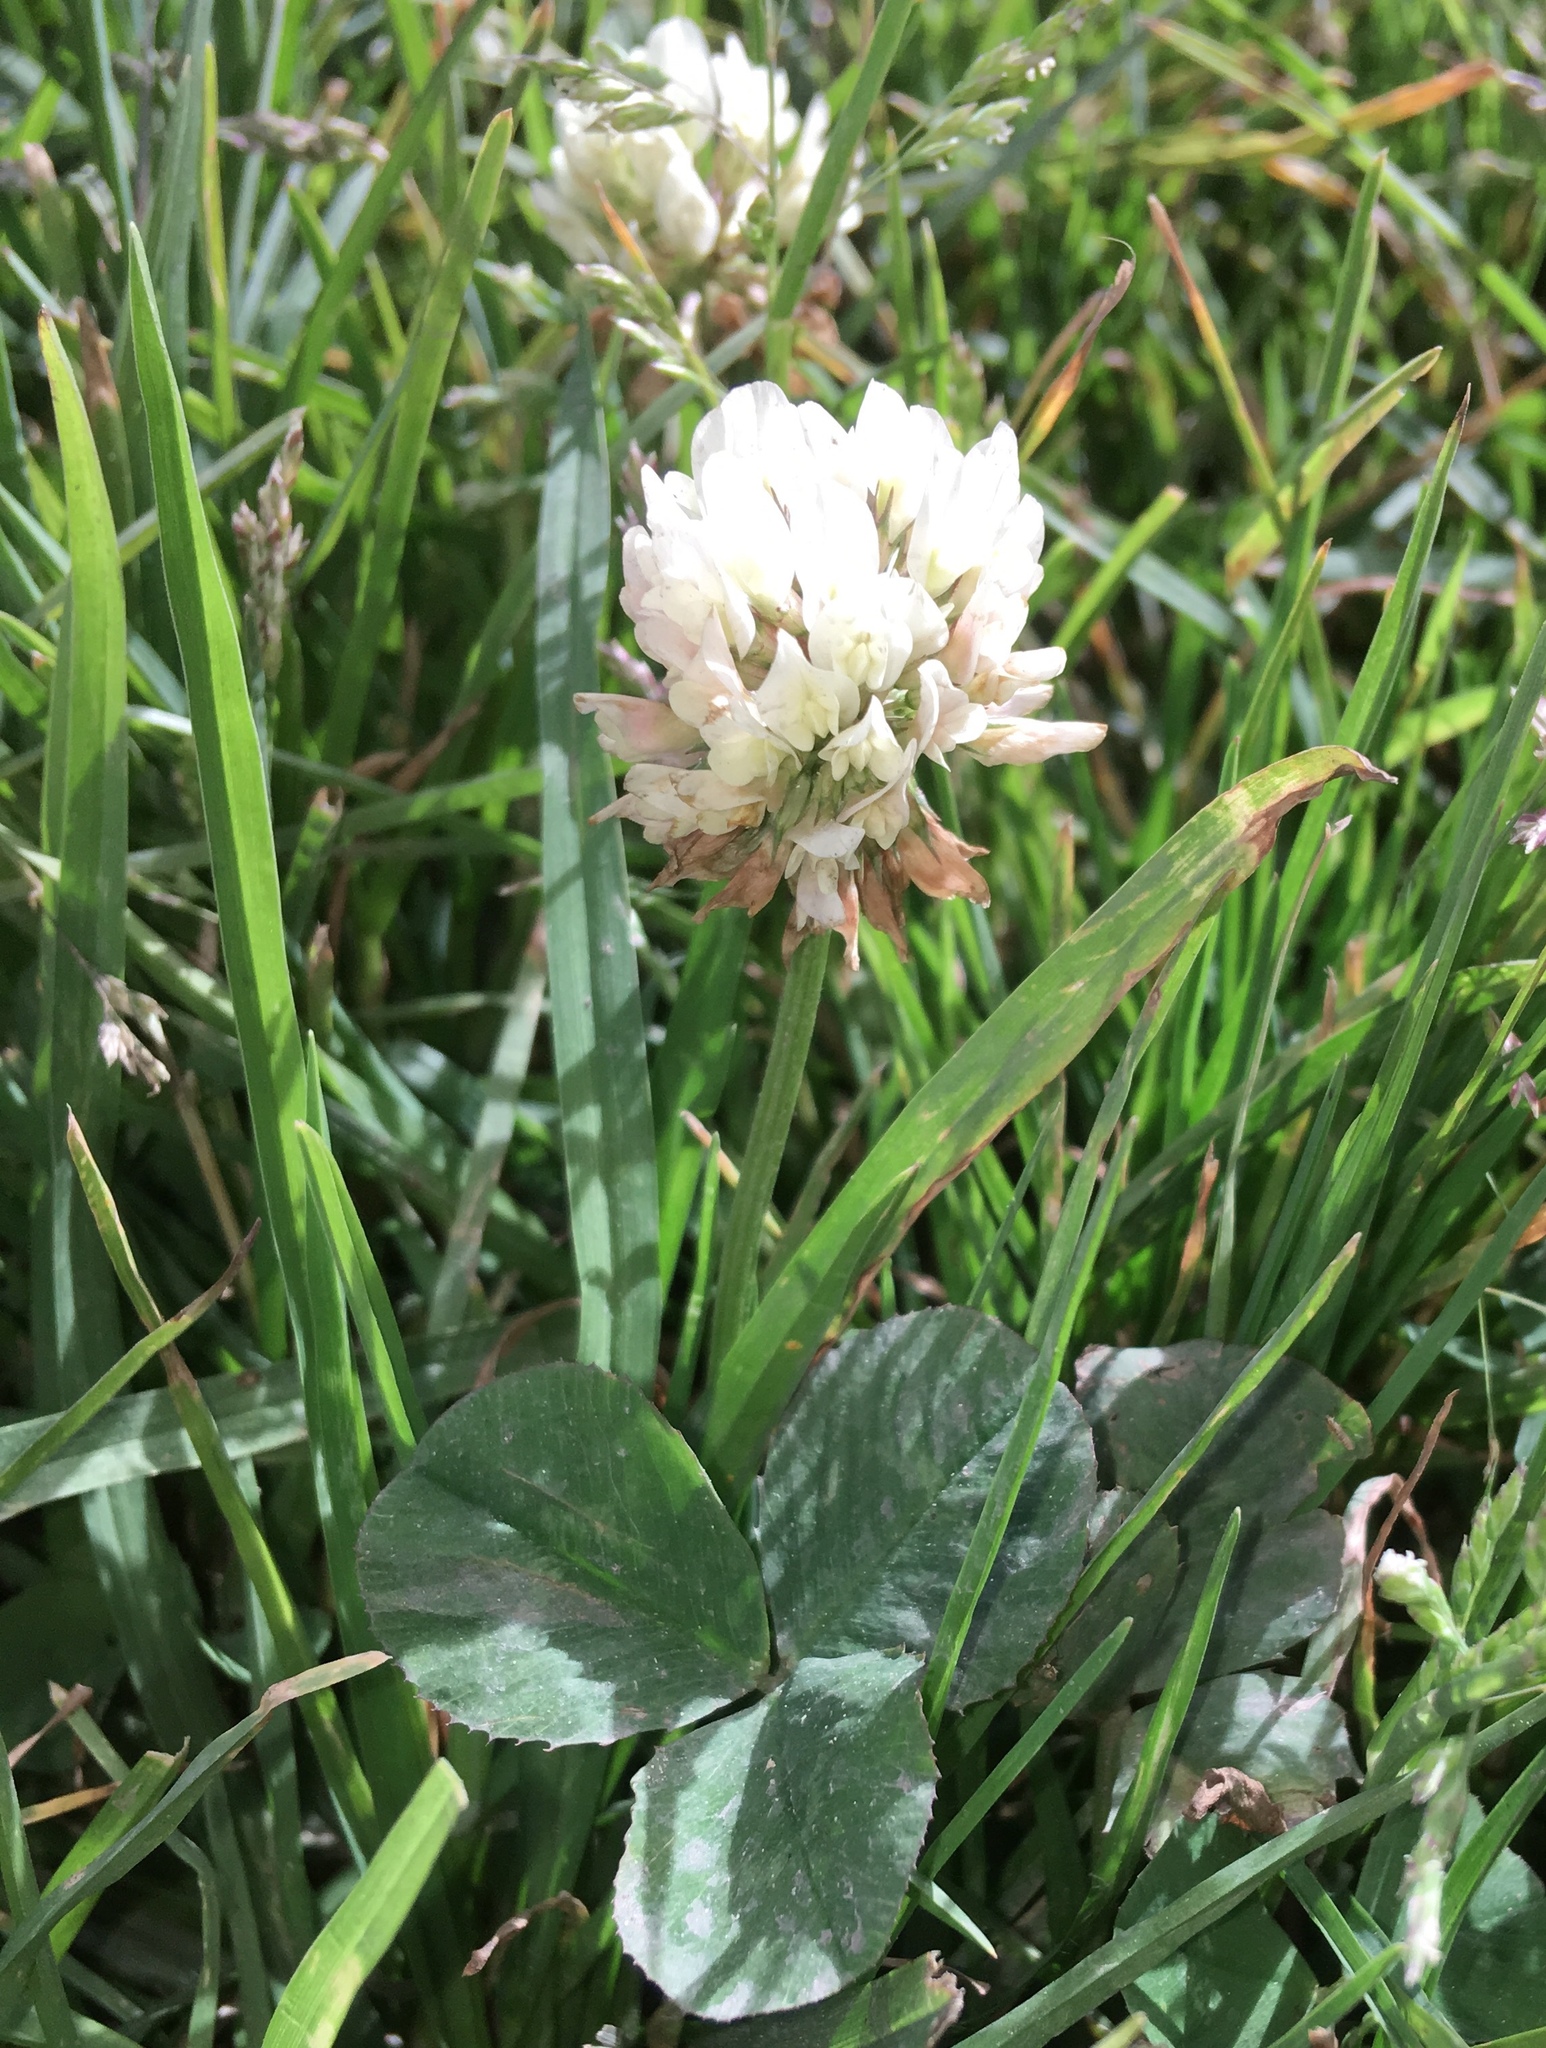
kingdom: Plantae
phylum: Tracheophyta
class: Magnoliopsida
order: Fabales
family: Fabaceae
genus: Trifolium
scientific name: Trifolium repens
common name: White clover
